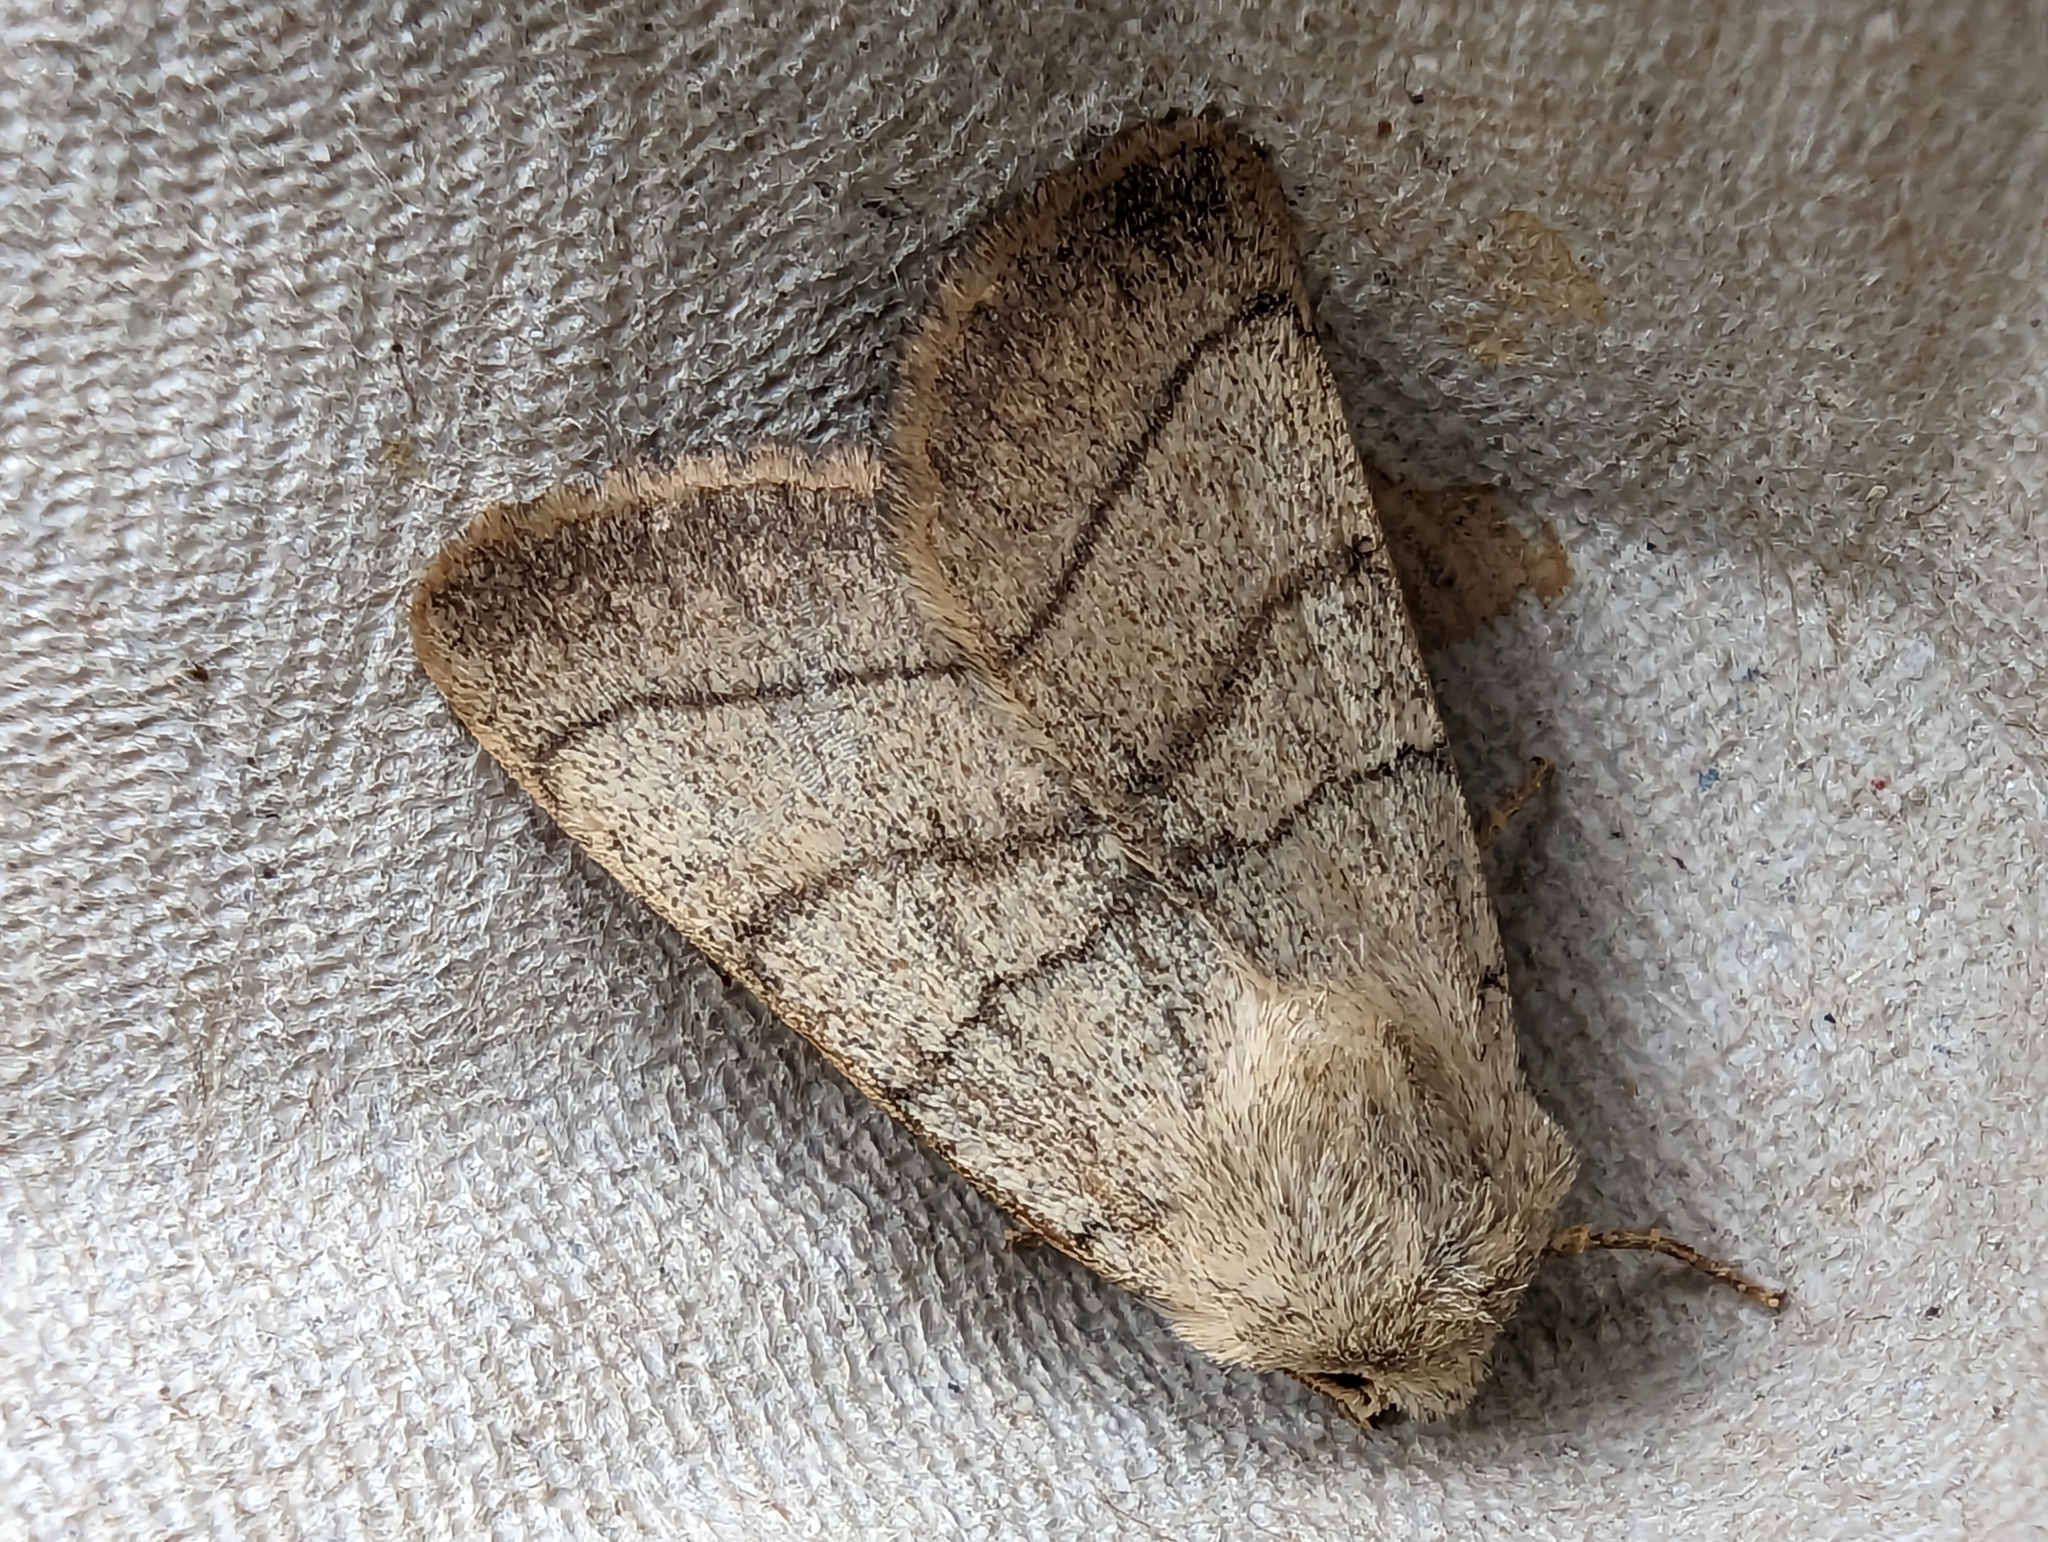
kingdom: Animalia
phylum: Arthropoda
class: Insecta
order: Lepidoptera
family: Noctuidae
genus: Charanyca
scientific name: Charanyca trigrammica
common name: Treble lines
